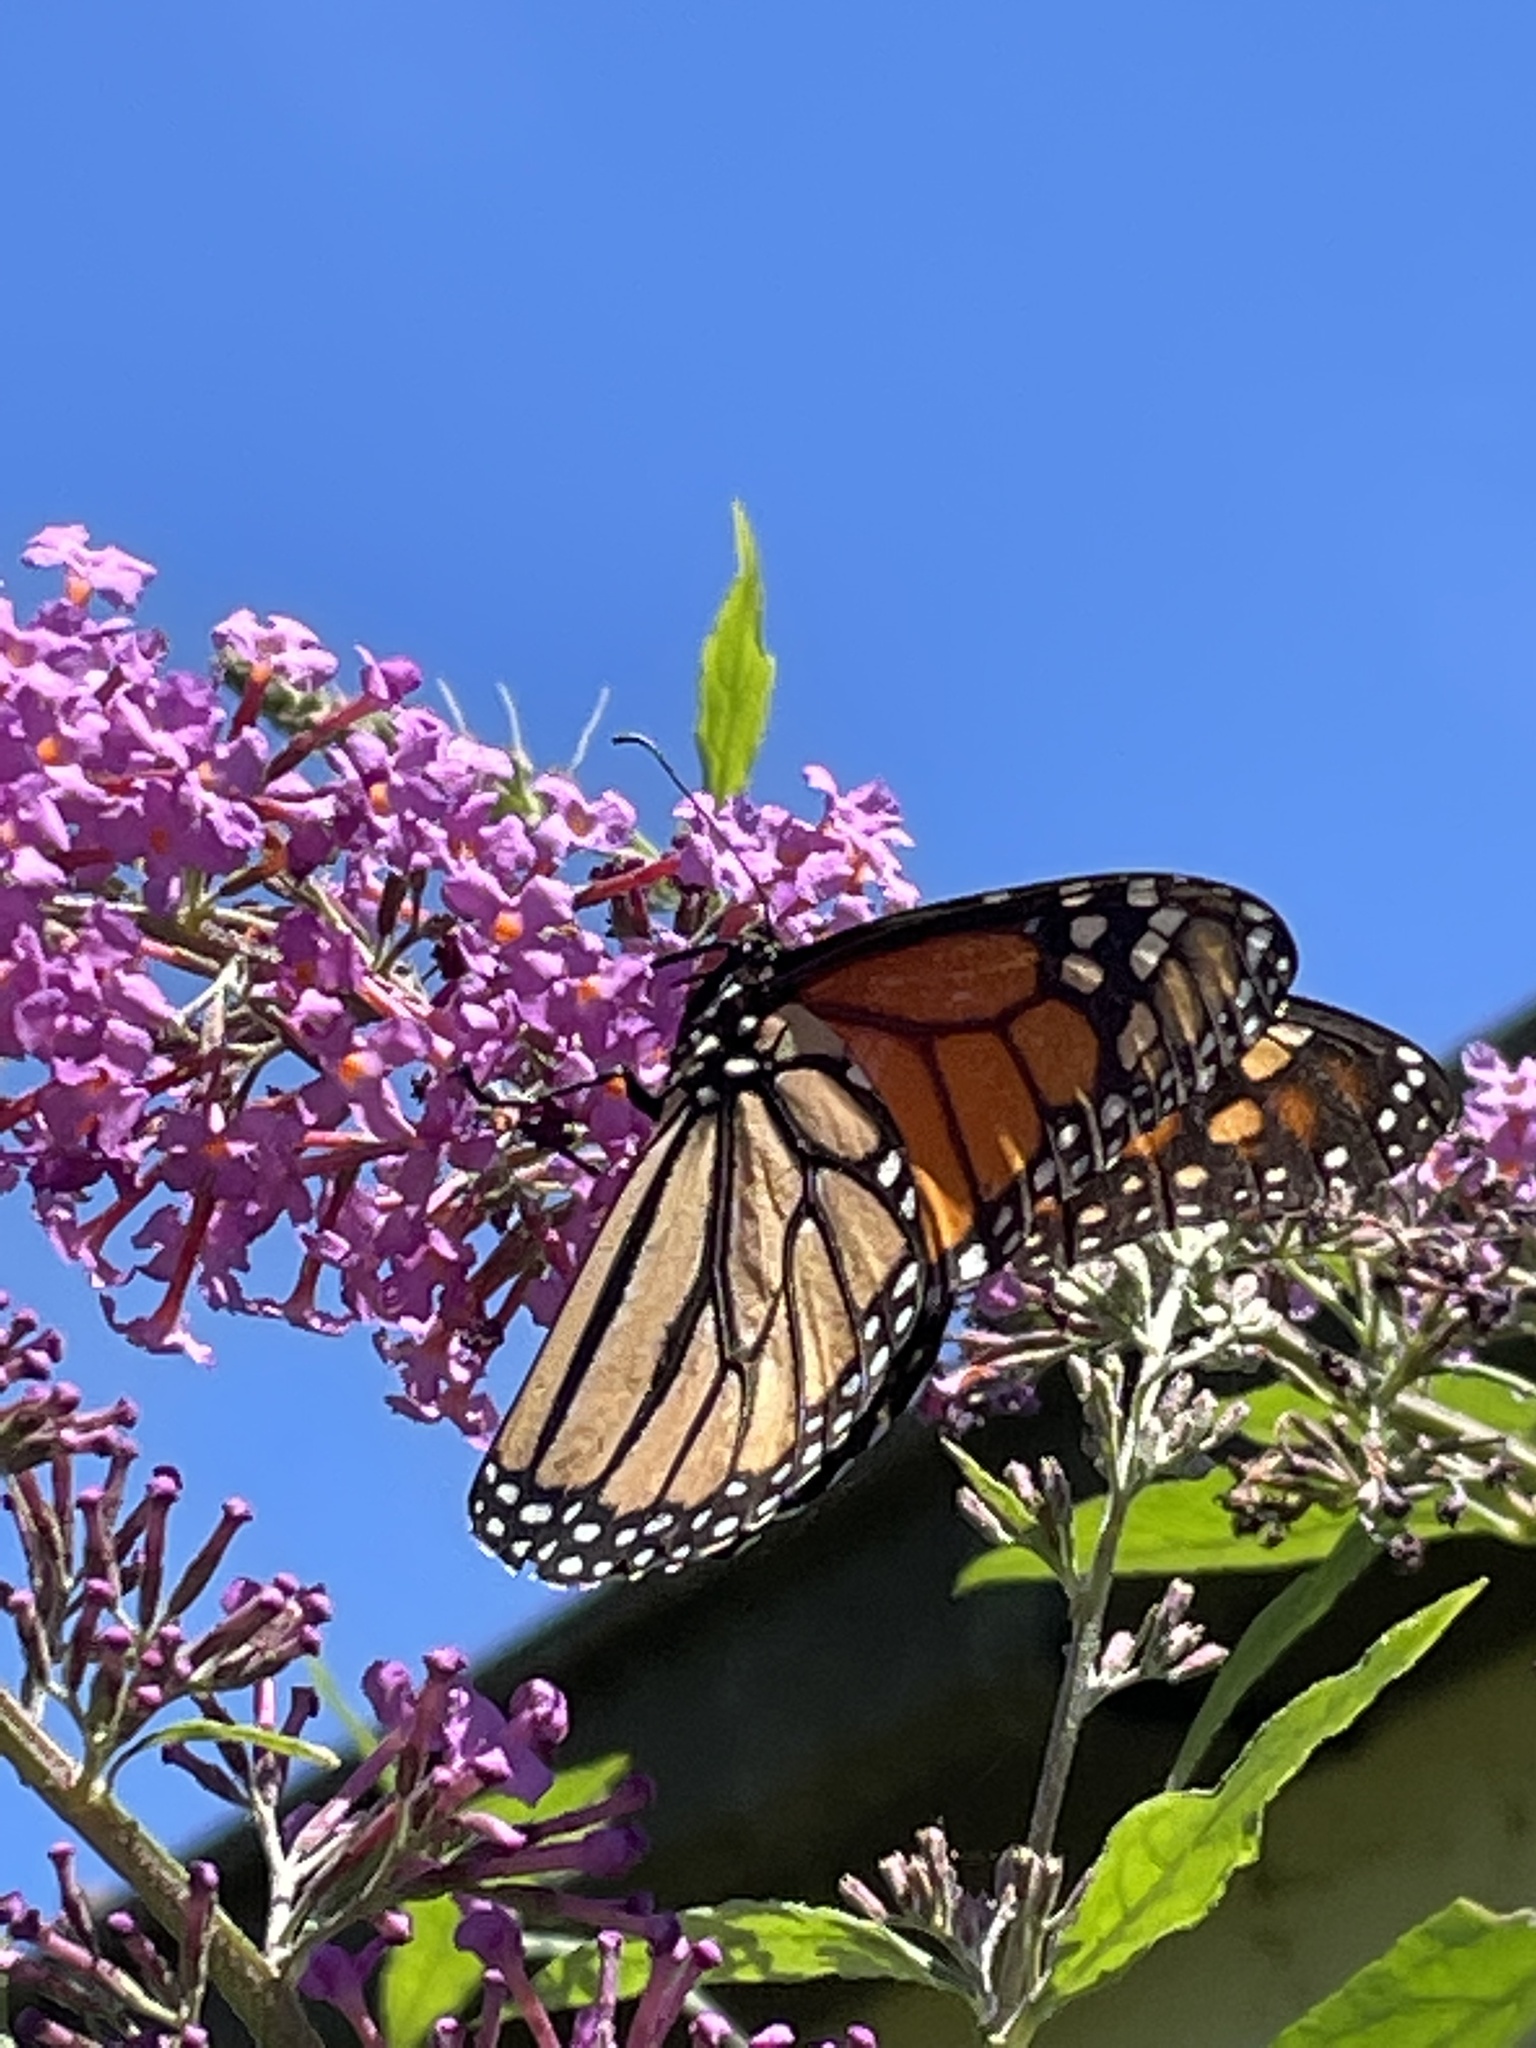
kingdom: Animalia
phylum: Arthropoda
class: Insecta
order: Lepidoptera
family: Nymphalidae
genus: Danaus
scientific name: Danaus plexippus
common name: Monarch
